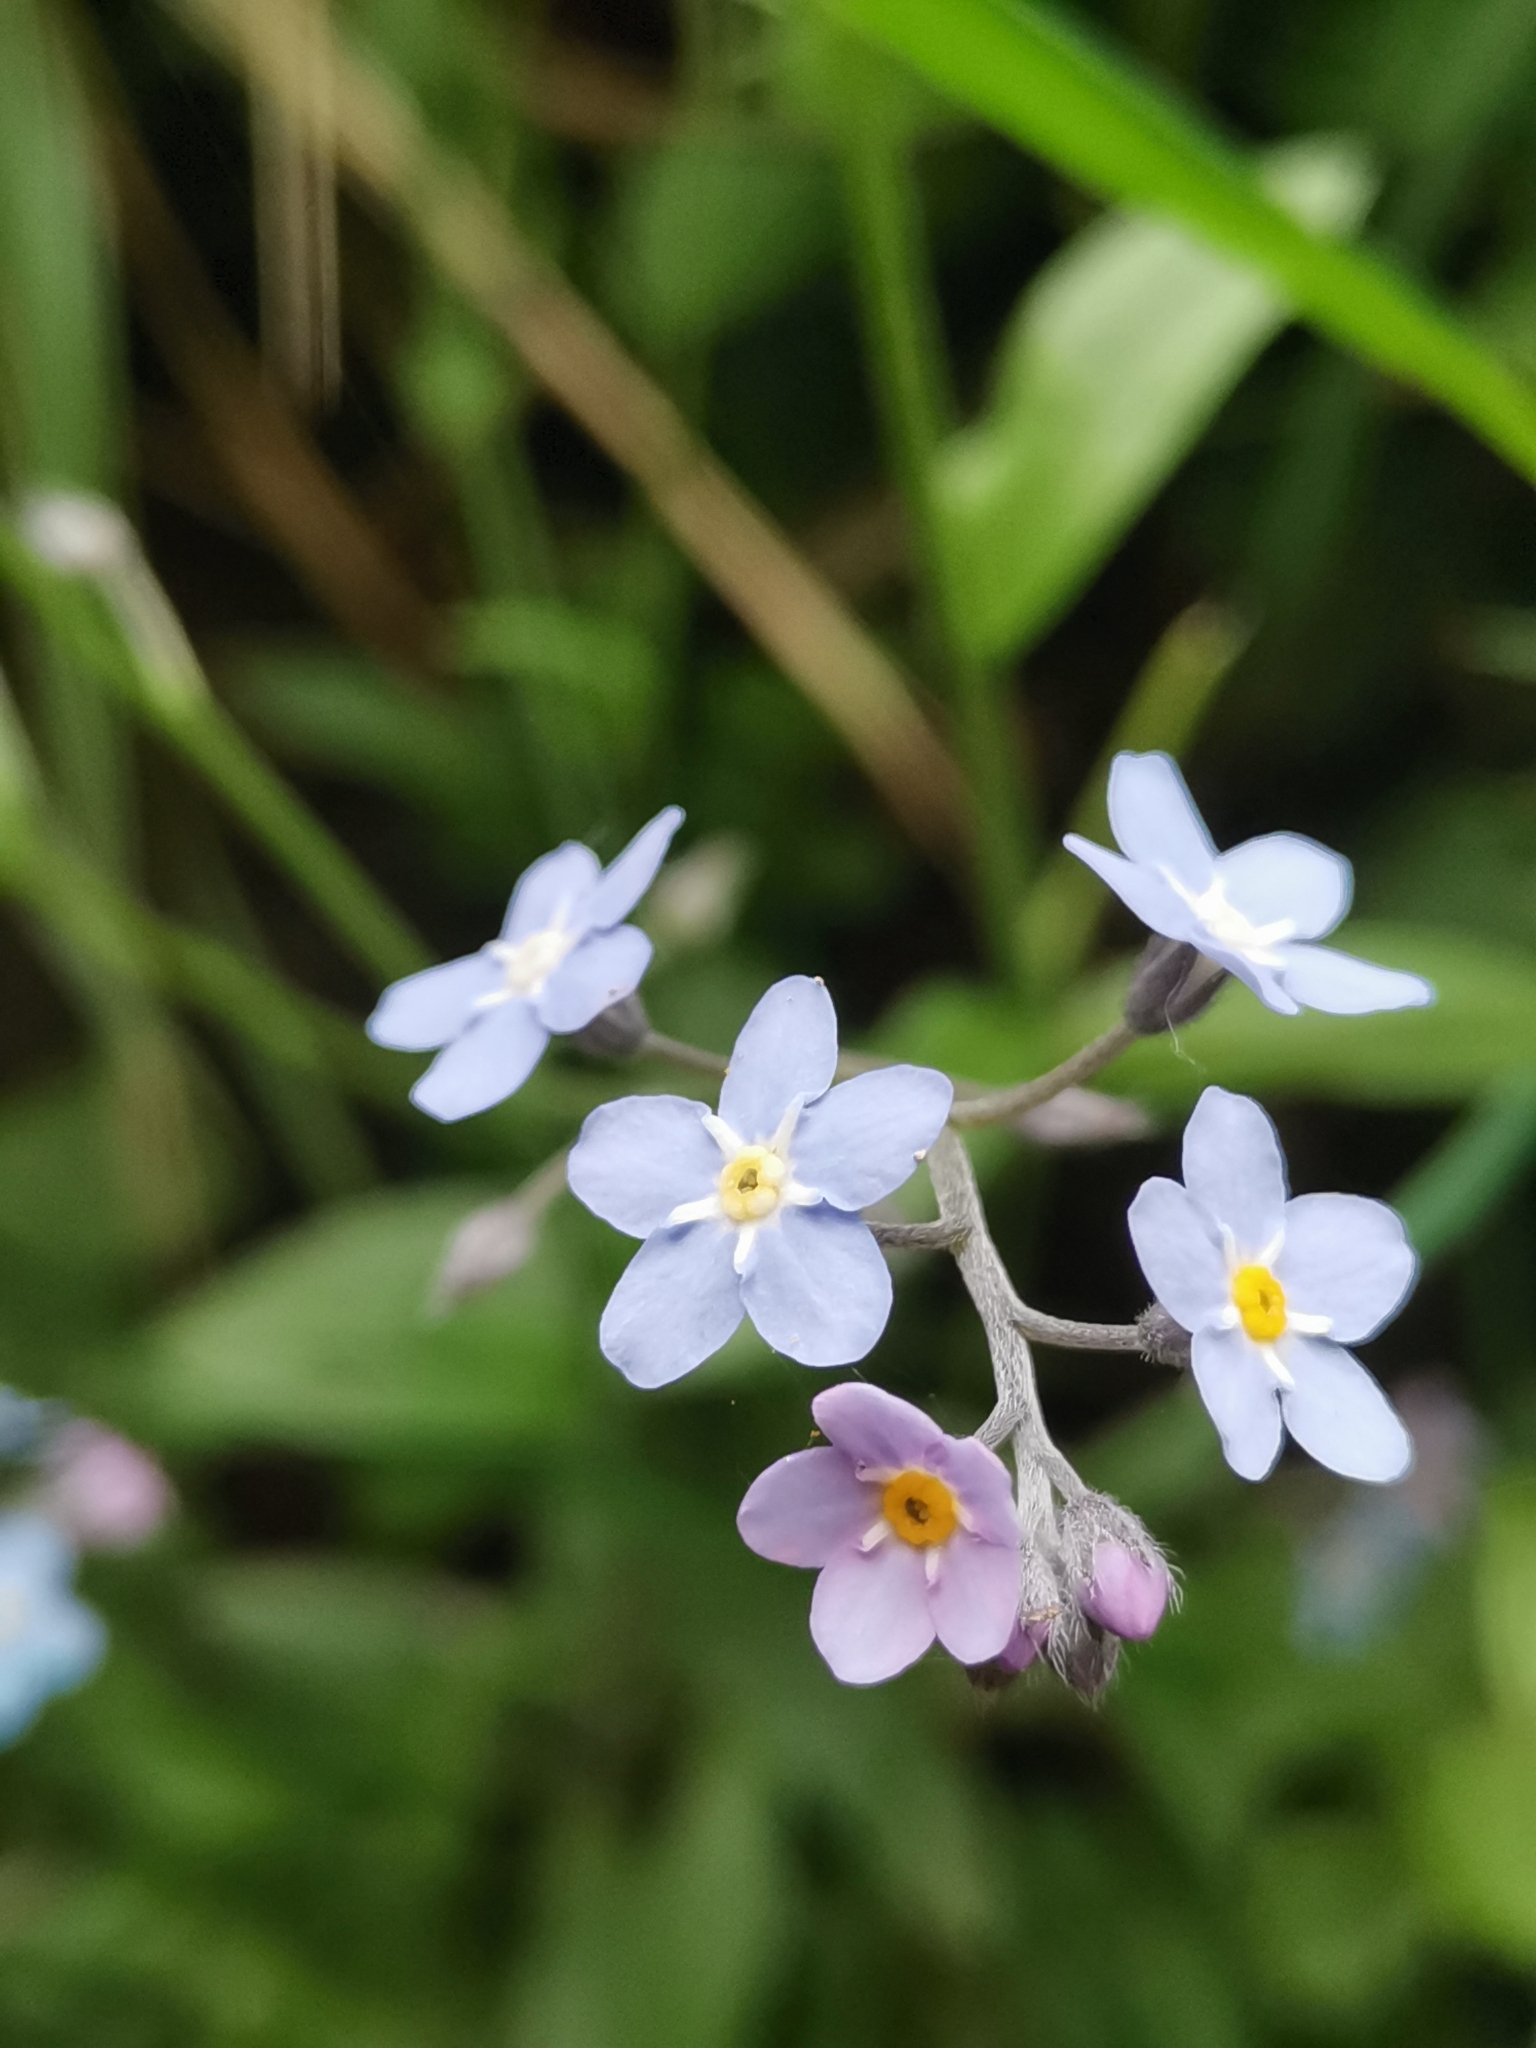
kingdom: Plantae
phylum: Tracheophyta
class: Magnoliopsida
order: Boraginales
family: Boraginaceae
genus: Myosotis
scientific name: Myosotis sylvatica
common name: Wood forget-me-not
